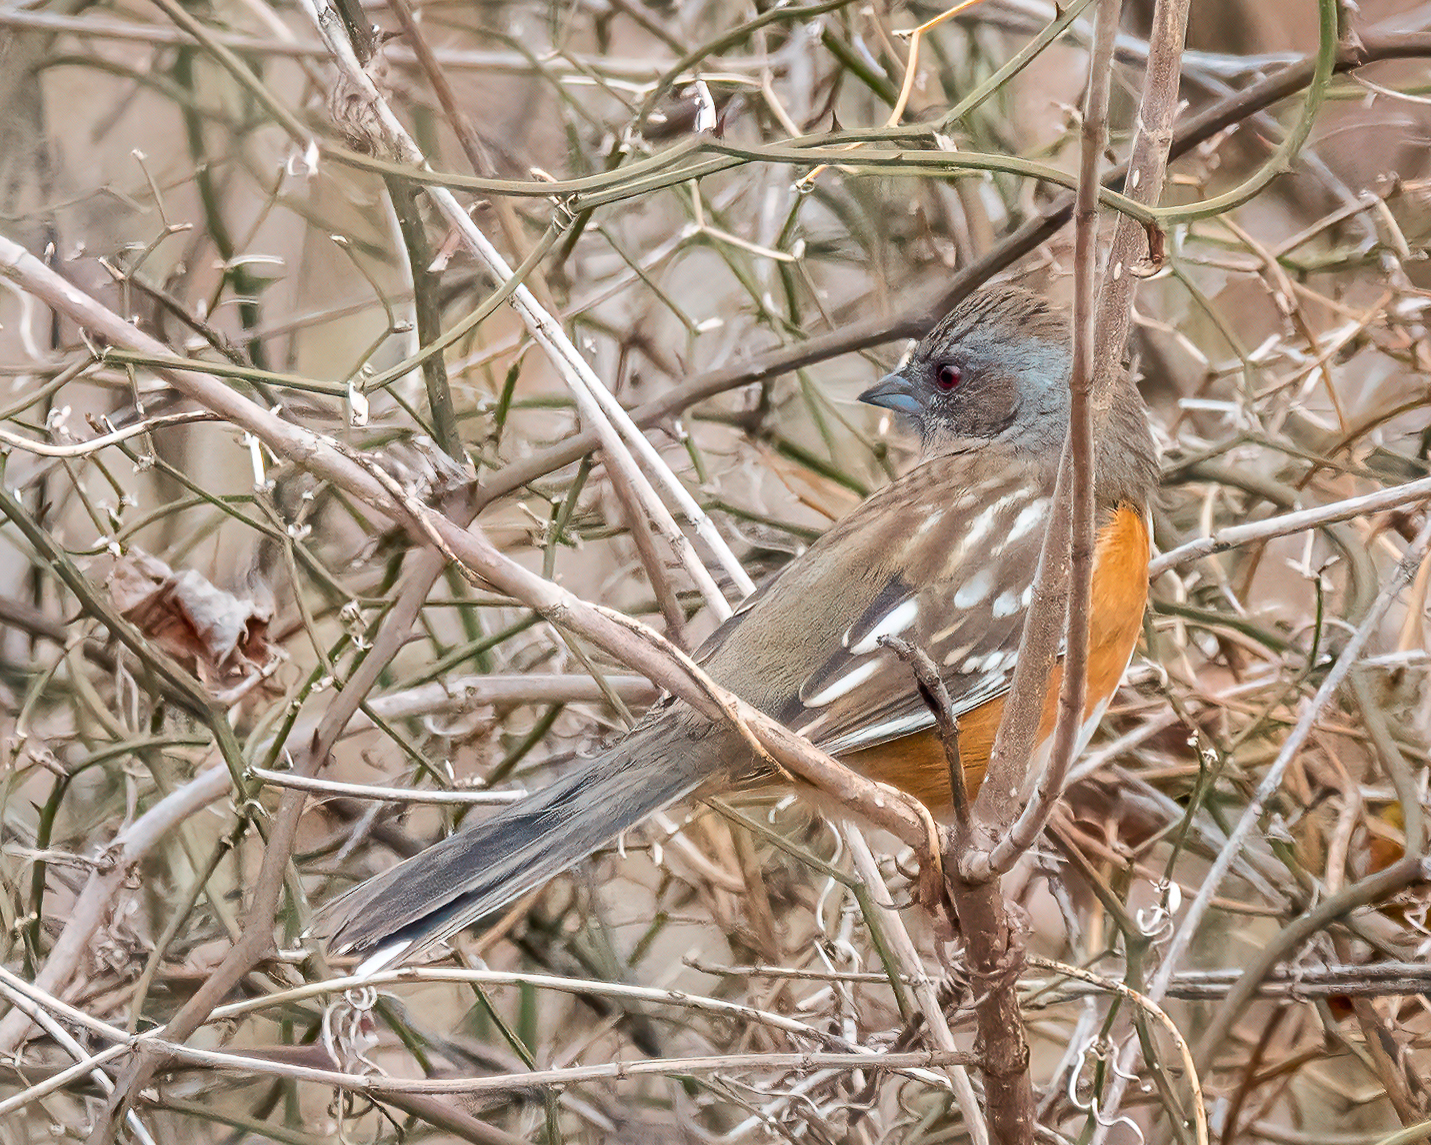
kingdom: Animalia
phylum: Chordata
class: Aves
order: Passeriformes
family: Passerellidae
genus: Pipilo
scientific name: Pipilo maculatus
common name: Spotted towhee
